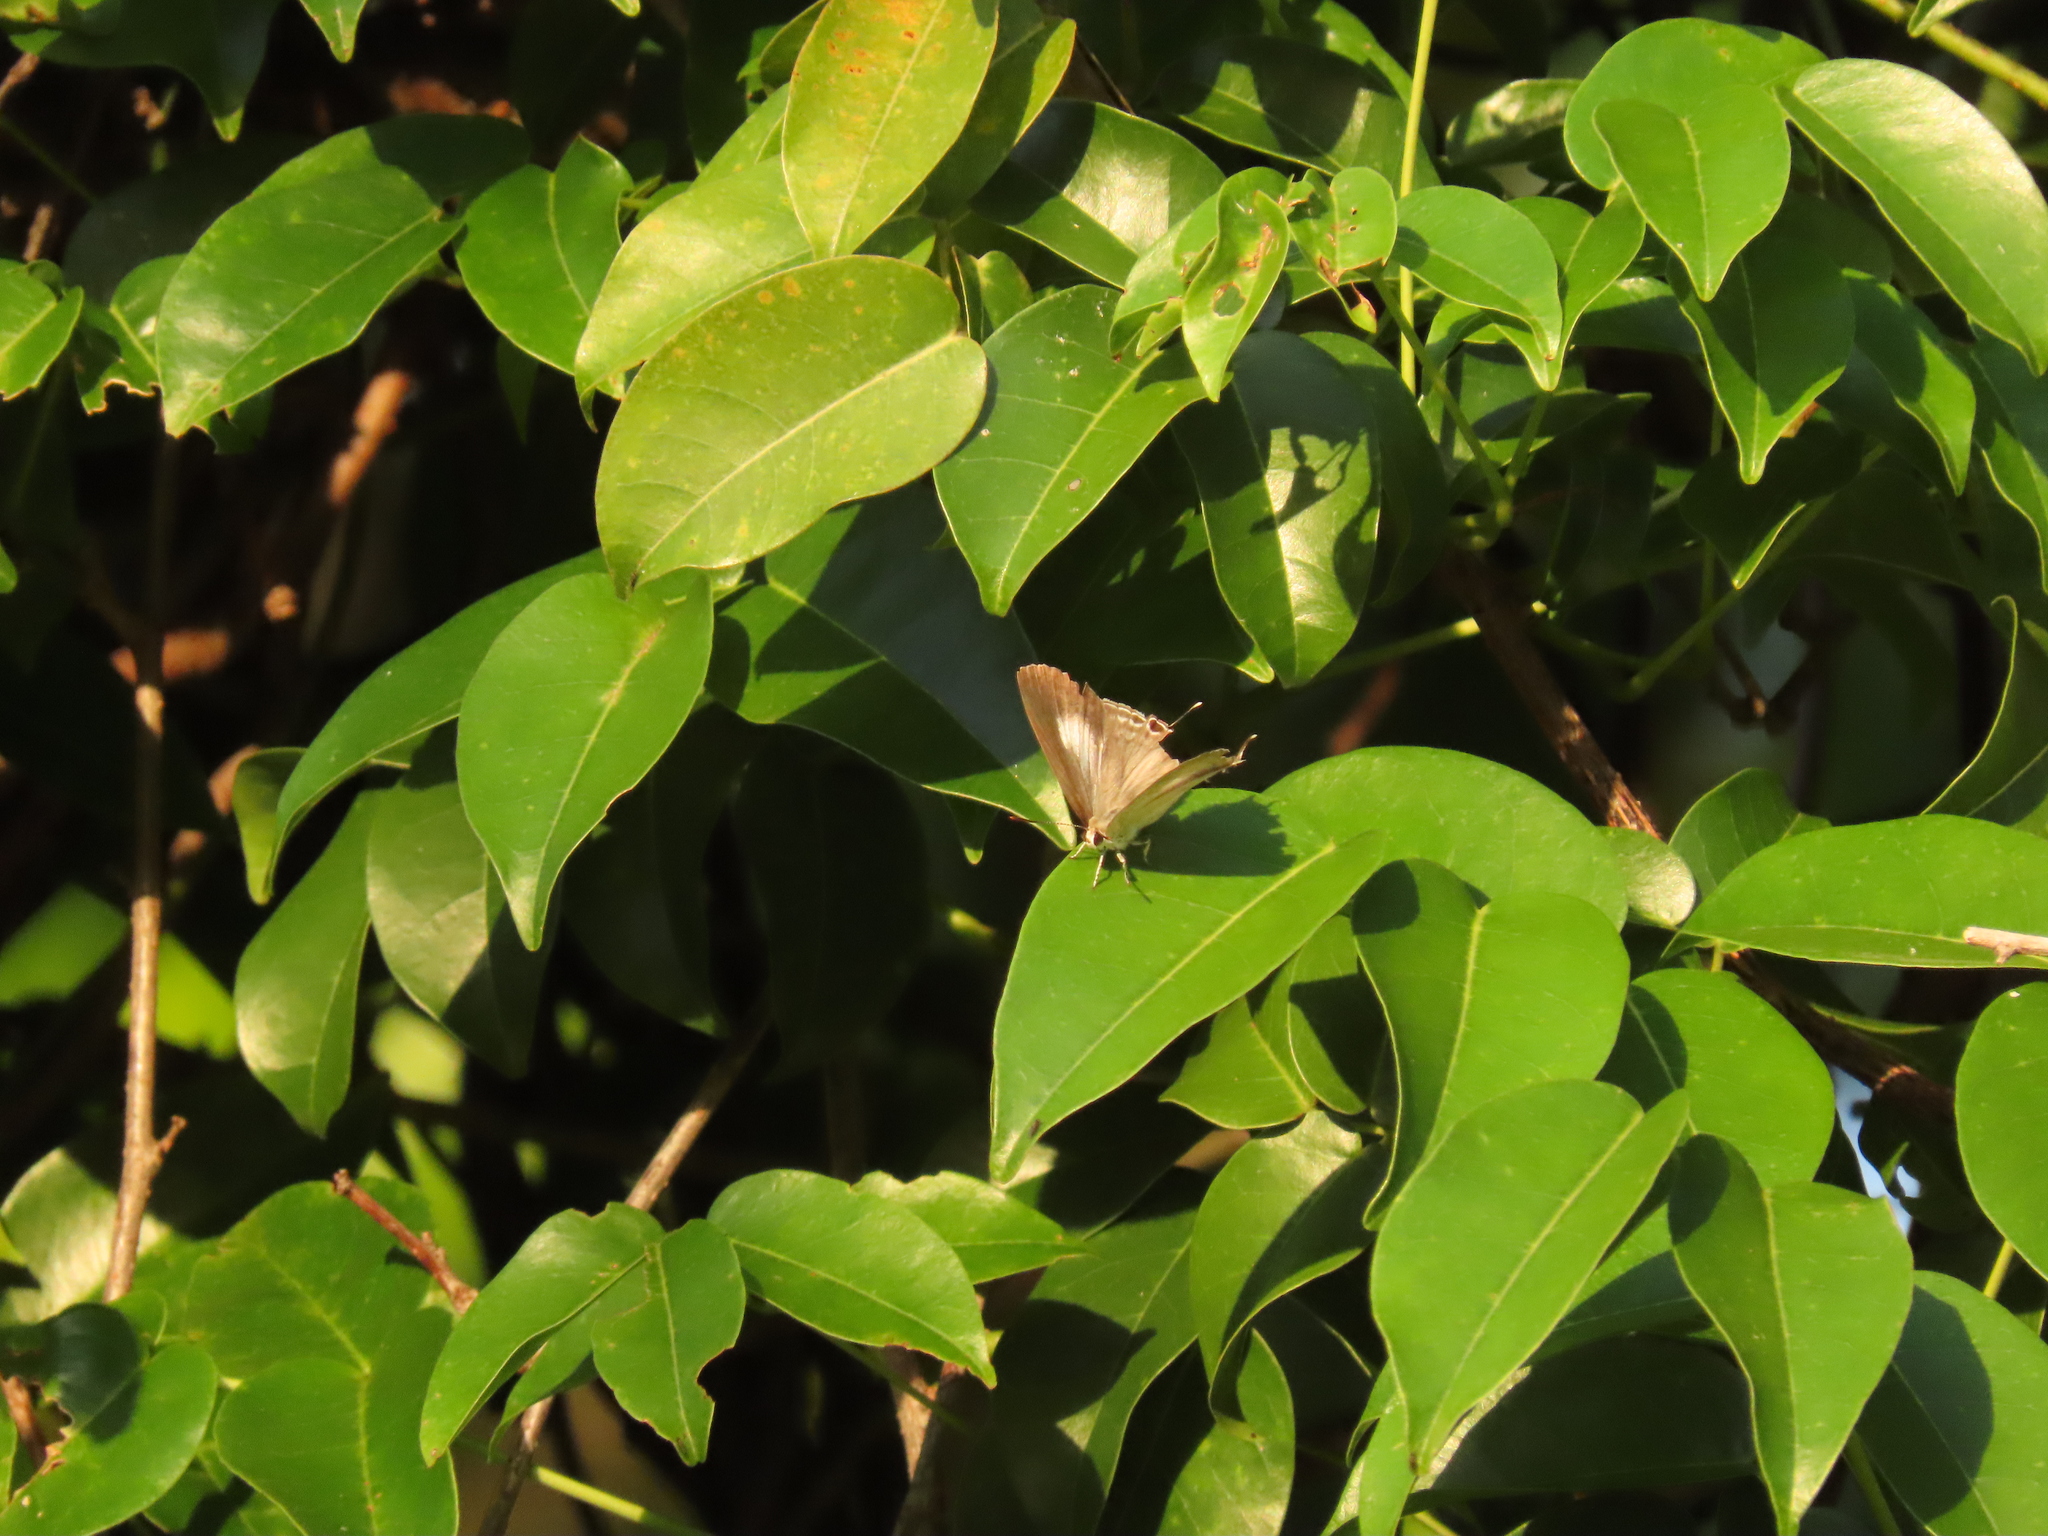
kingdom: Animalia
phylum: Arthropoda
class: Insecta
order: Lepidoptera
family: Lycaenidae
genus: Hypolycaena
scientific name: Hypolycaena phorbas
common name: Black-spotted flash
